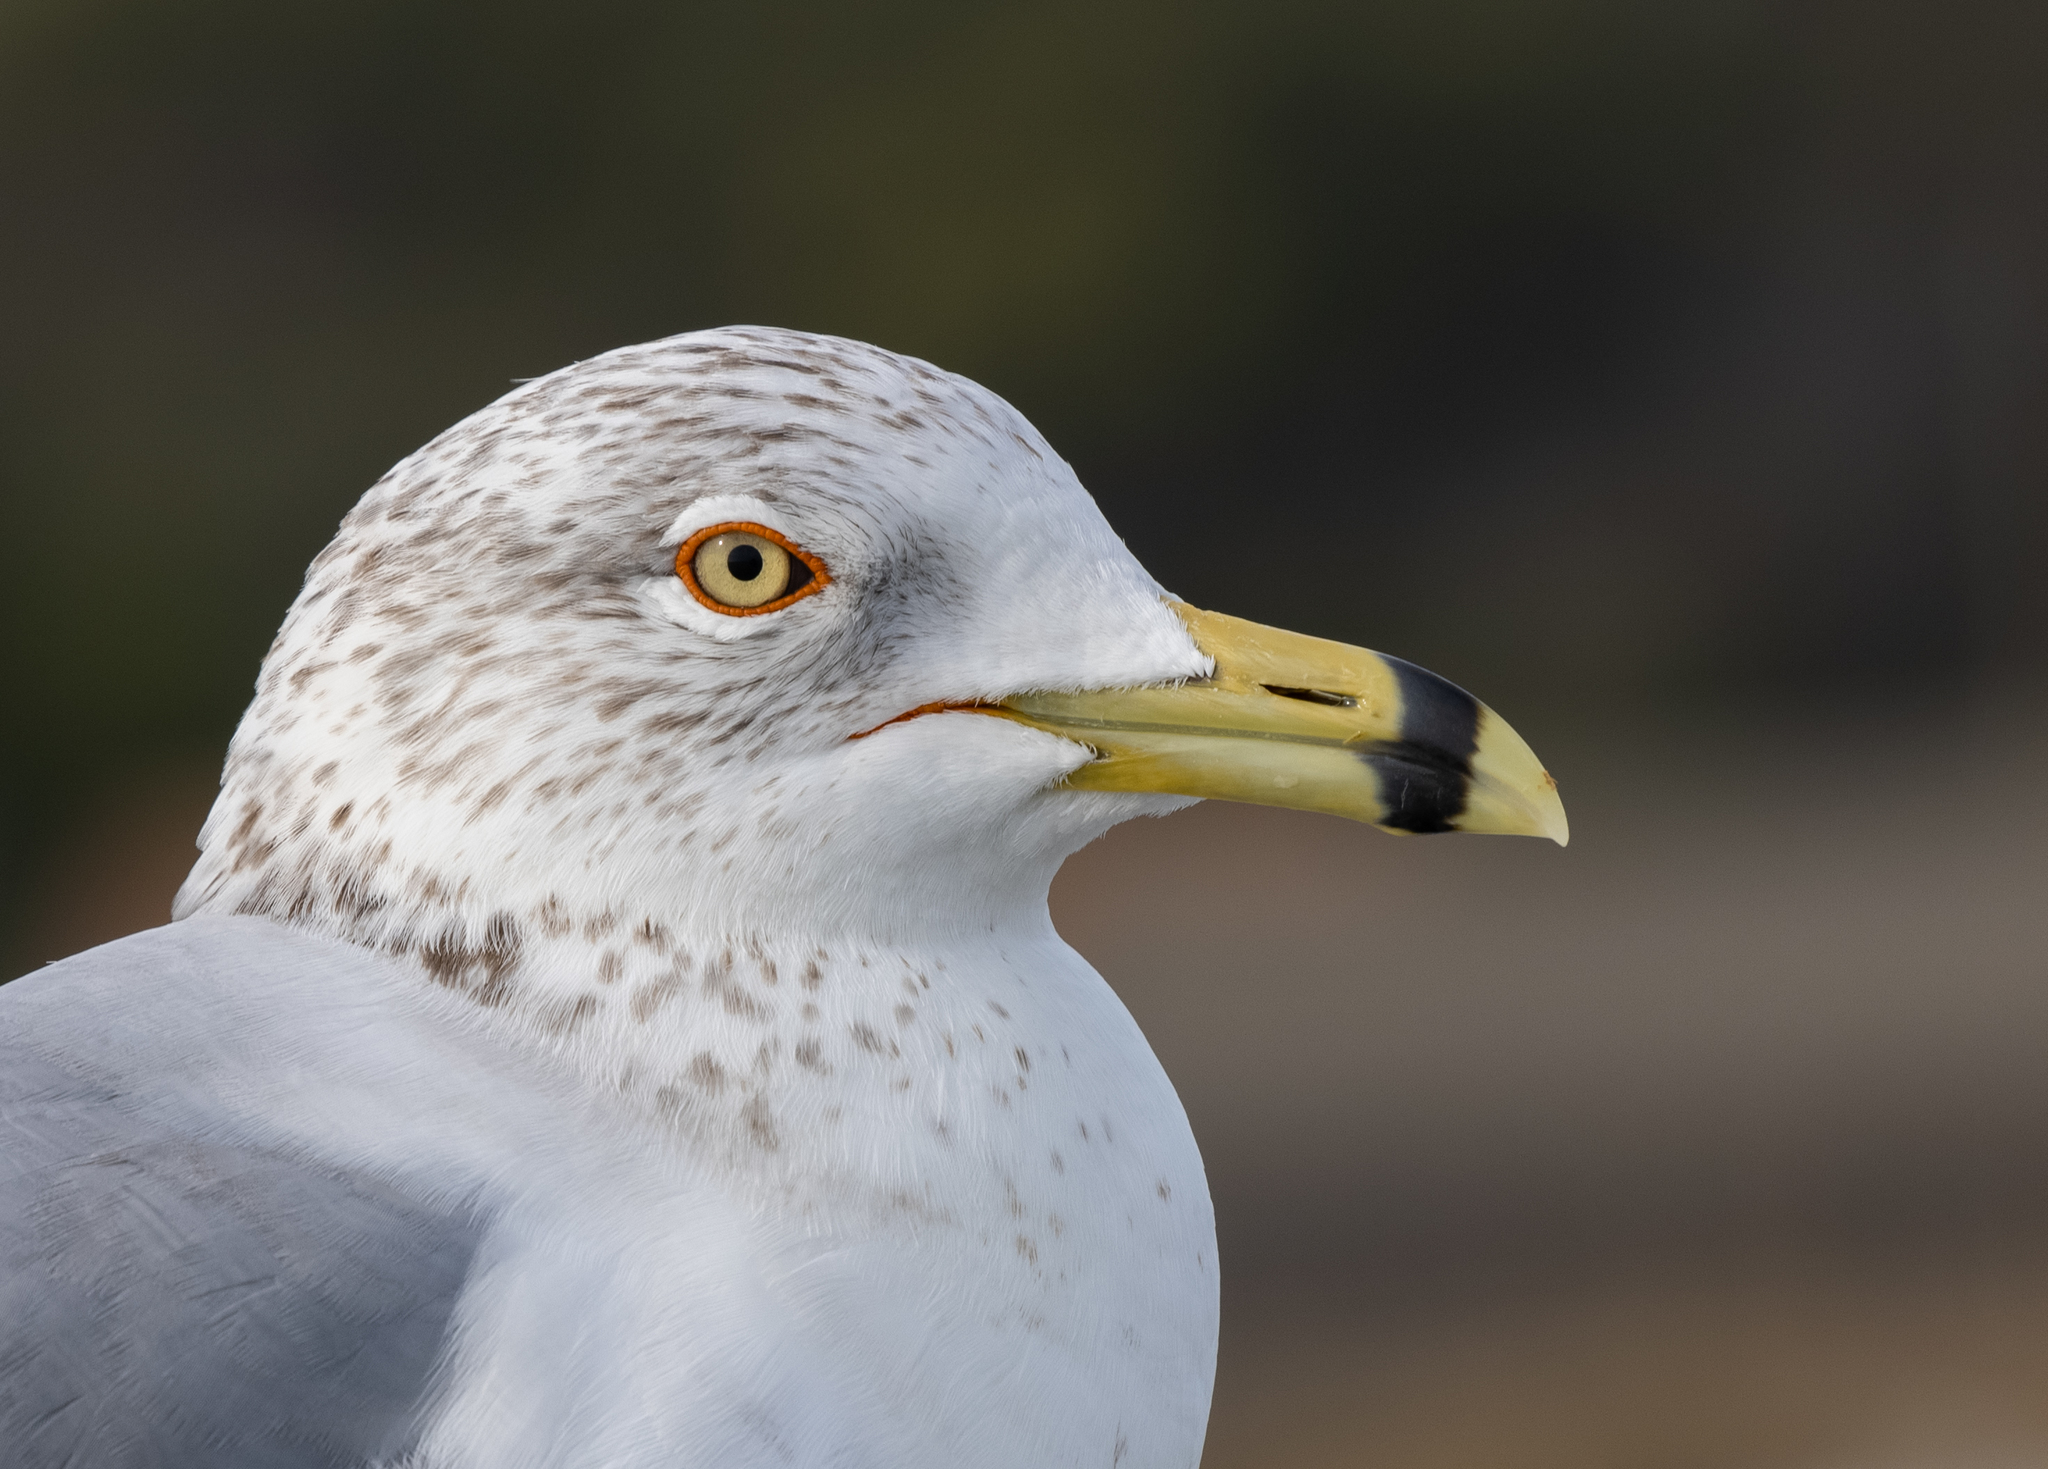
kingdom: Animalia
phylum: Chordata
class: Aves
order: Charadriiformes
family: Laridae
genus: Larus
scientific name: Larus delawarensis
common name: Ring-billed gull
